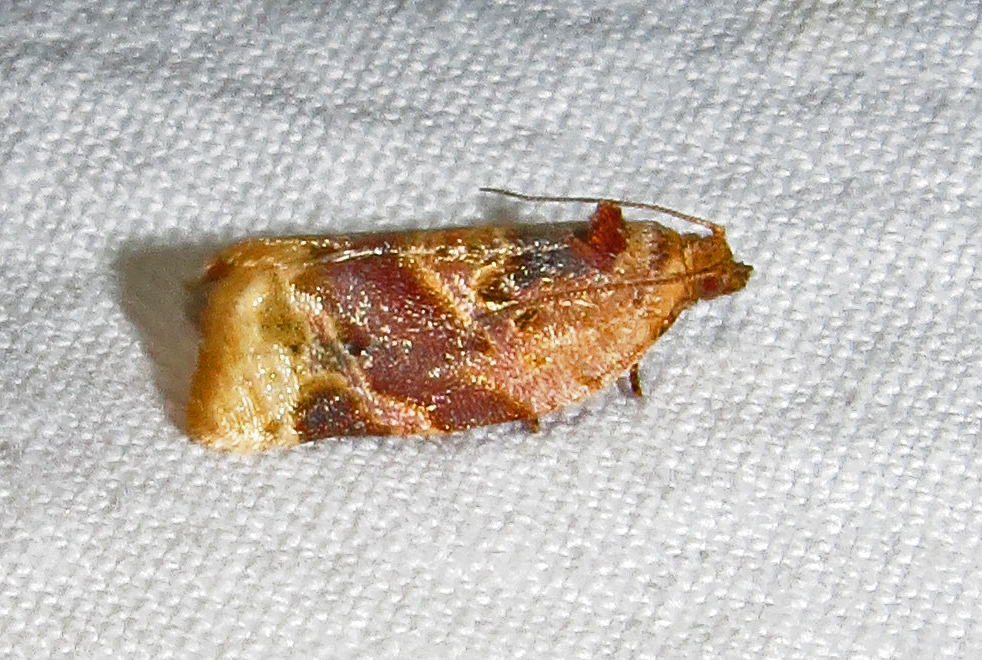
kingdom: Animalia
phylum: Arthropoda
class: Insecta
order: Lepidoptera
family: Tortricidae
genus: Argyrotaenia
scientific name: Argyrotaenia velutinana
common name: Red-banded leafroller moth
